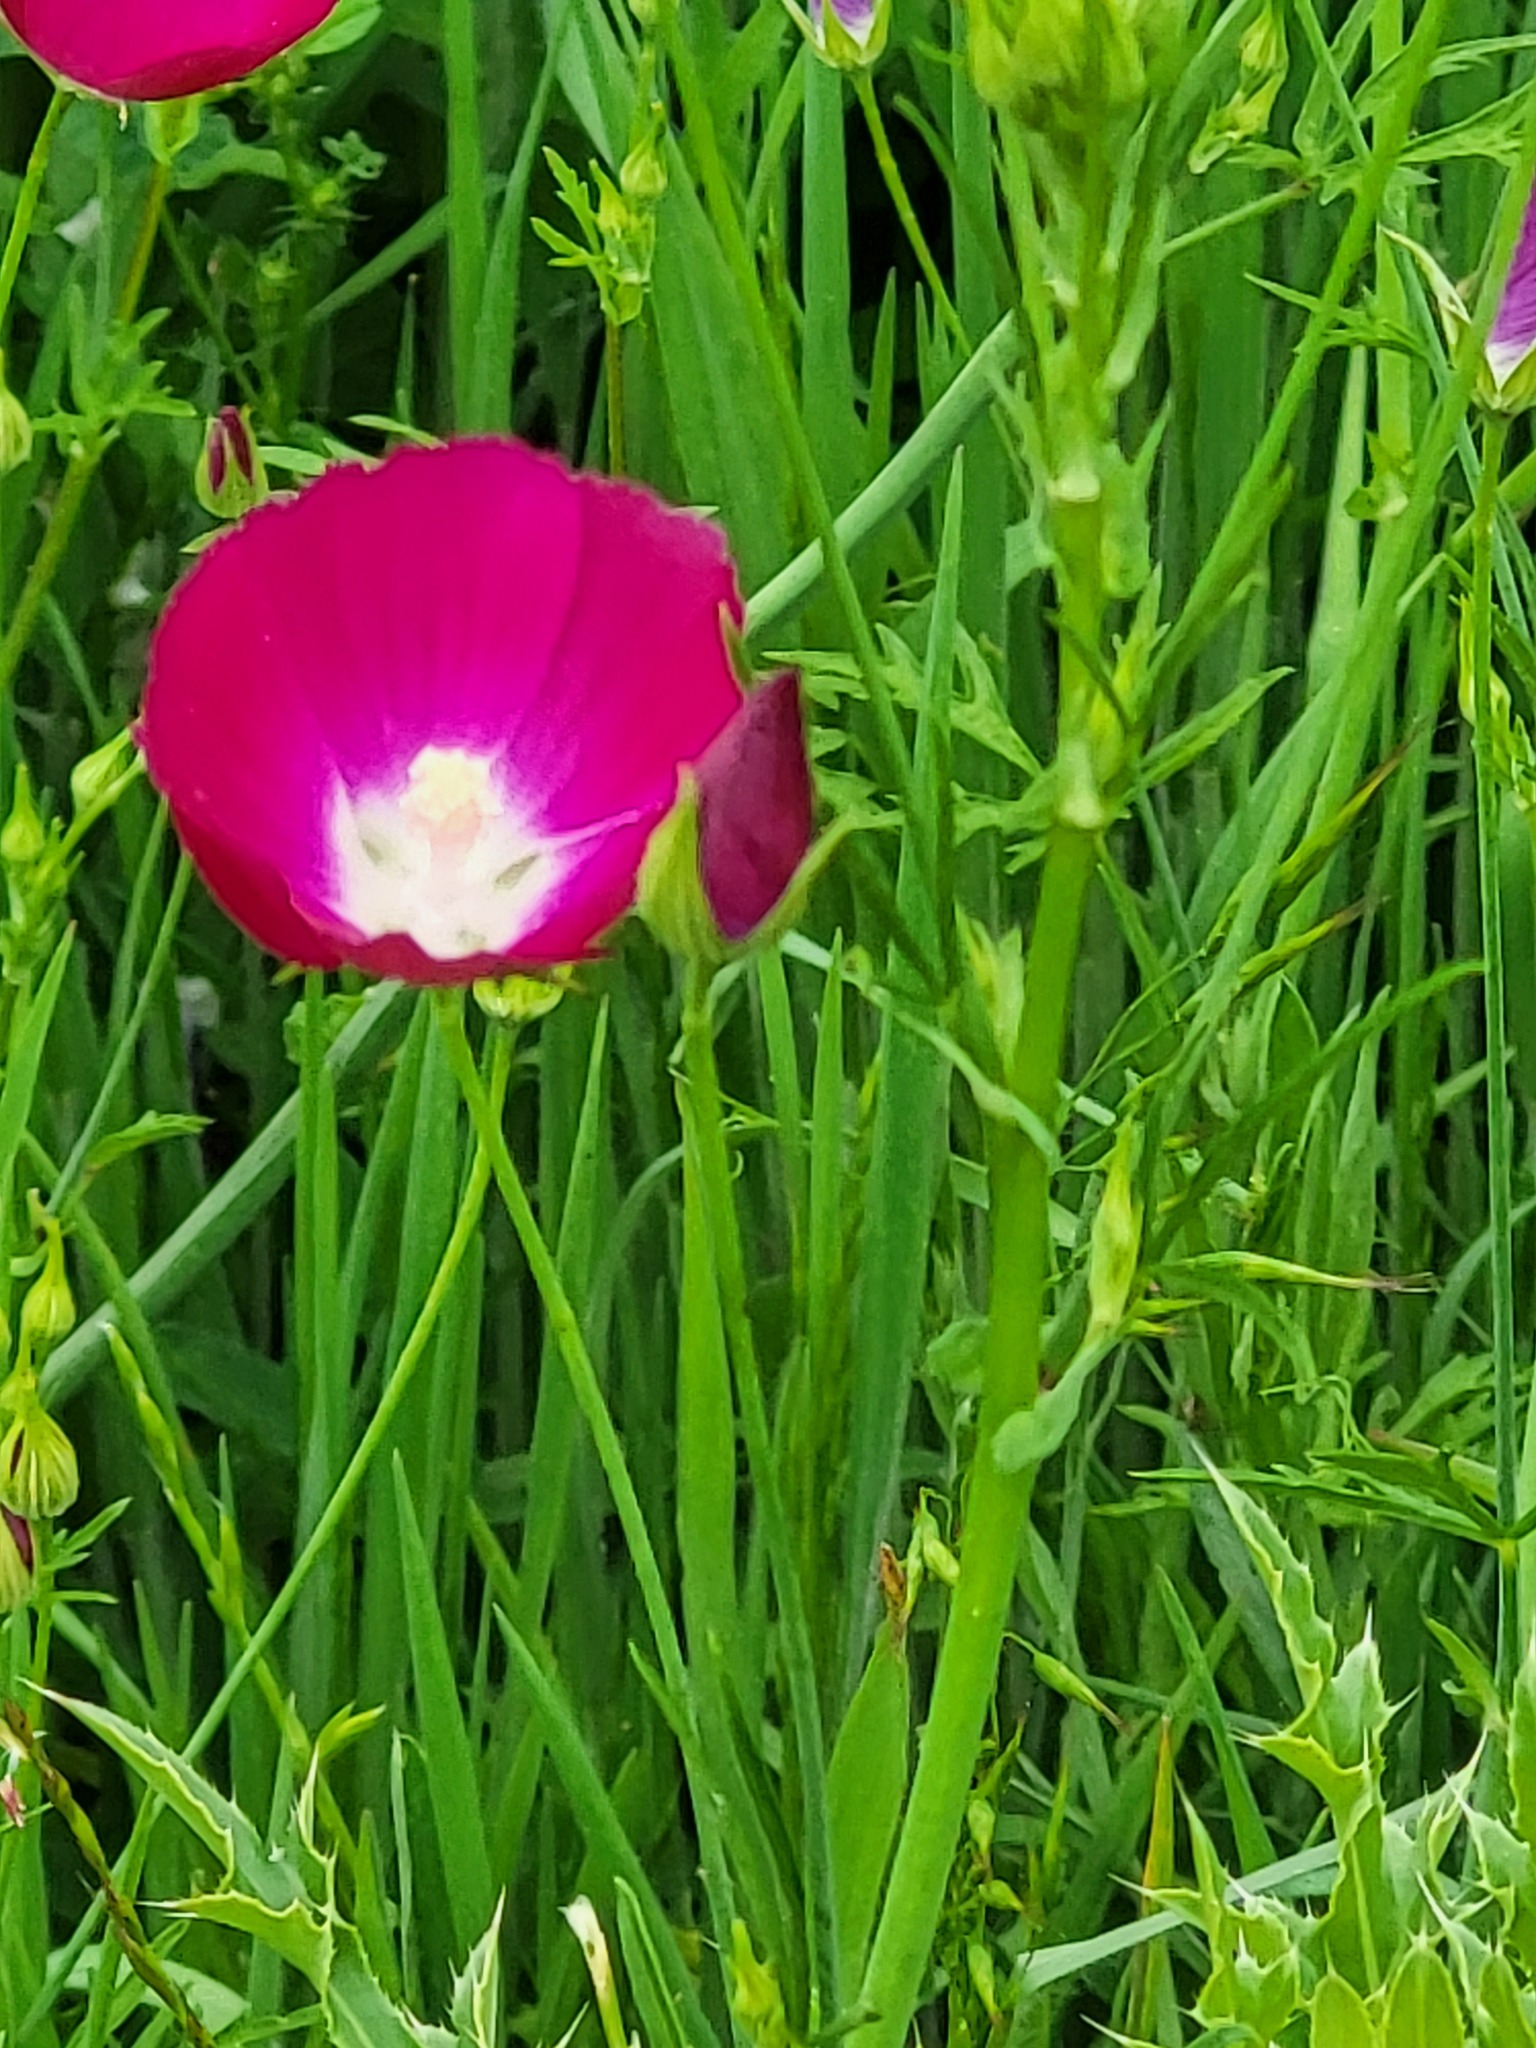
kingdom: Plantae
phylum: Tracheophyta
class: Magnoliopsida
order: Malvales
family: Malvaceae
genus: Callirhoe
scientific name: Callirhoe involucrata
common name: Purple poppy-mallow
